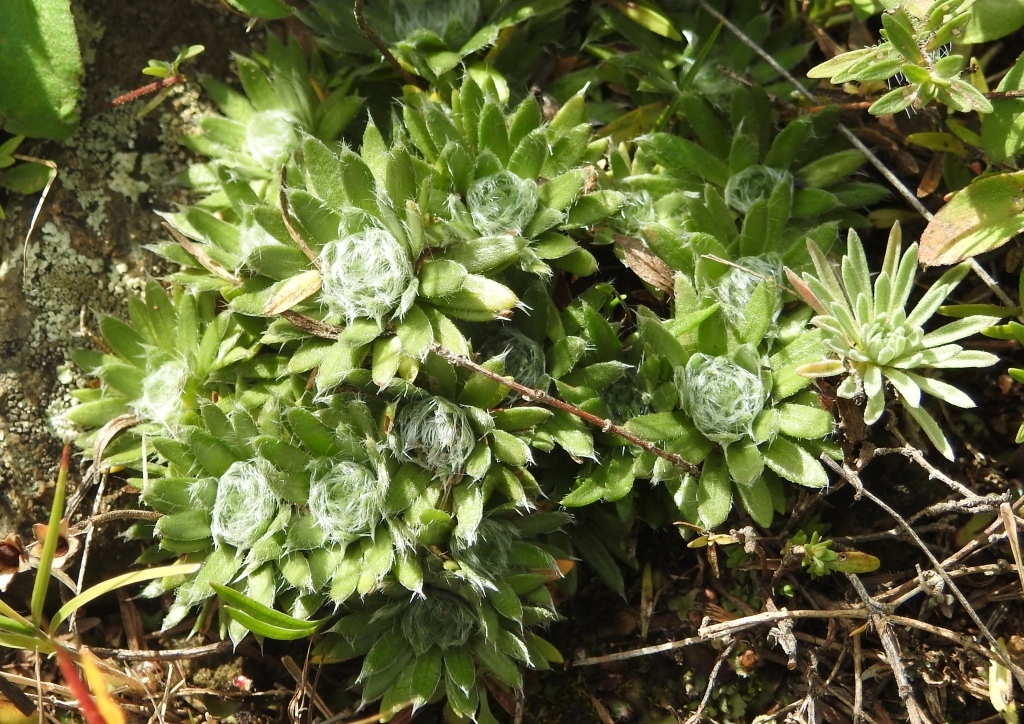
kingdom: Plantae
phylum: Tracheophyta
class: Magnoliopsida
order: Ericales
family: Primulaceae
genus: Androsace
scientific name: Androsace incana
